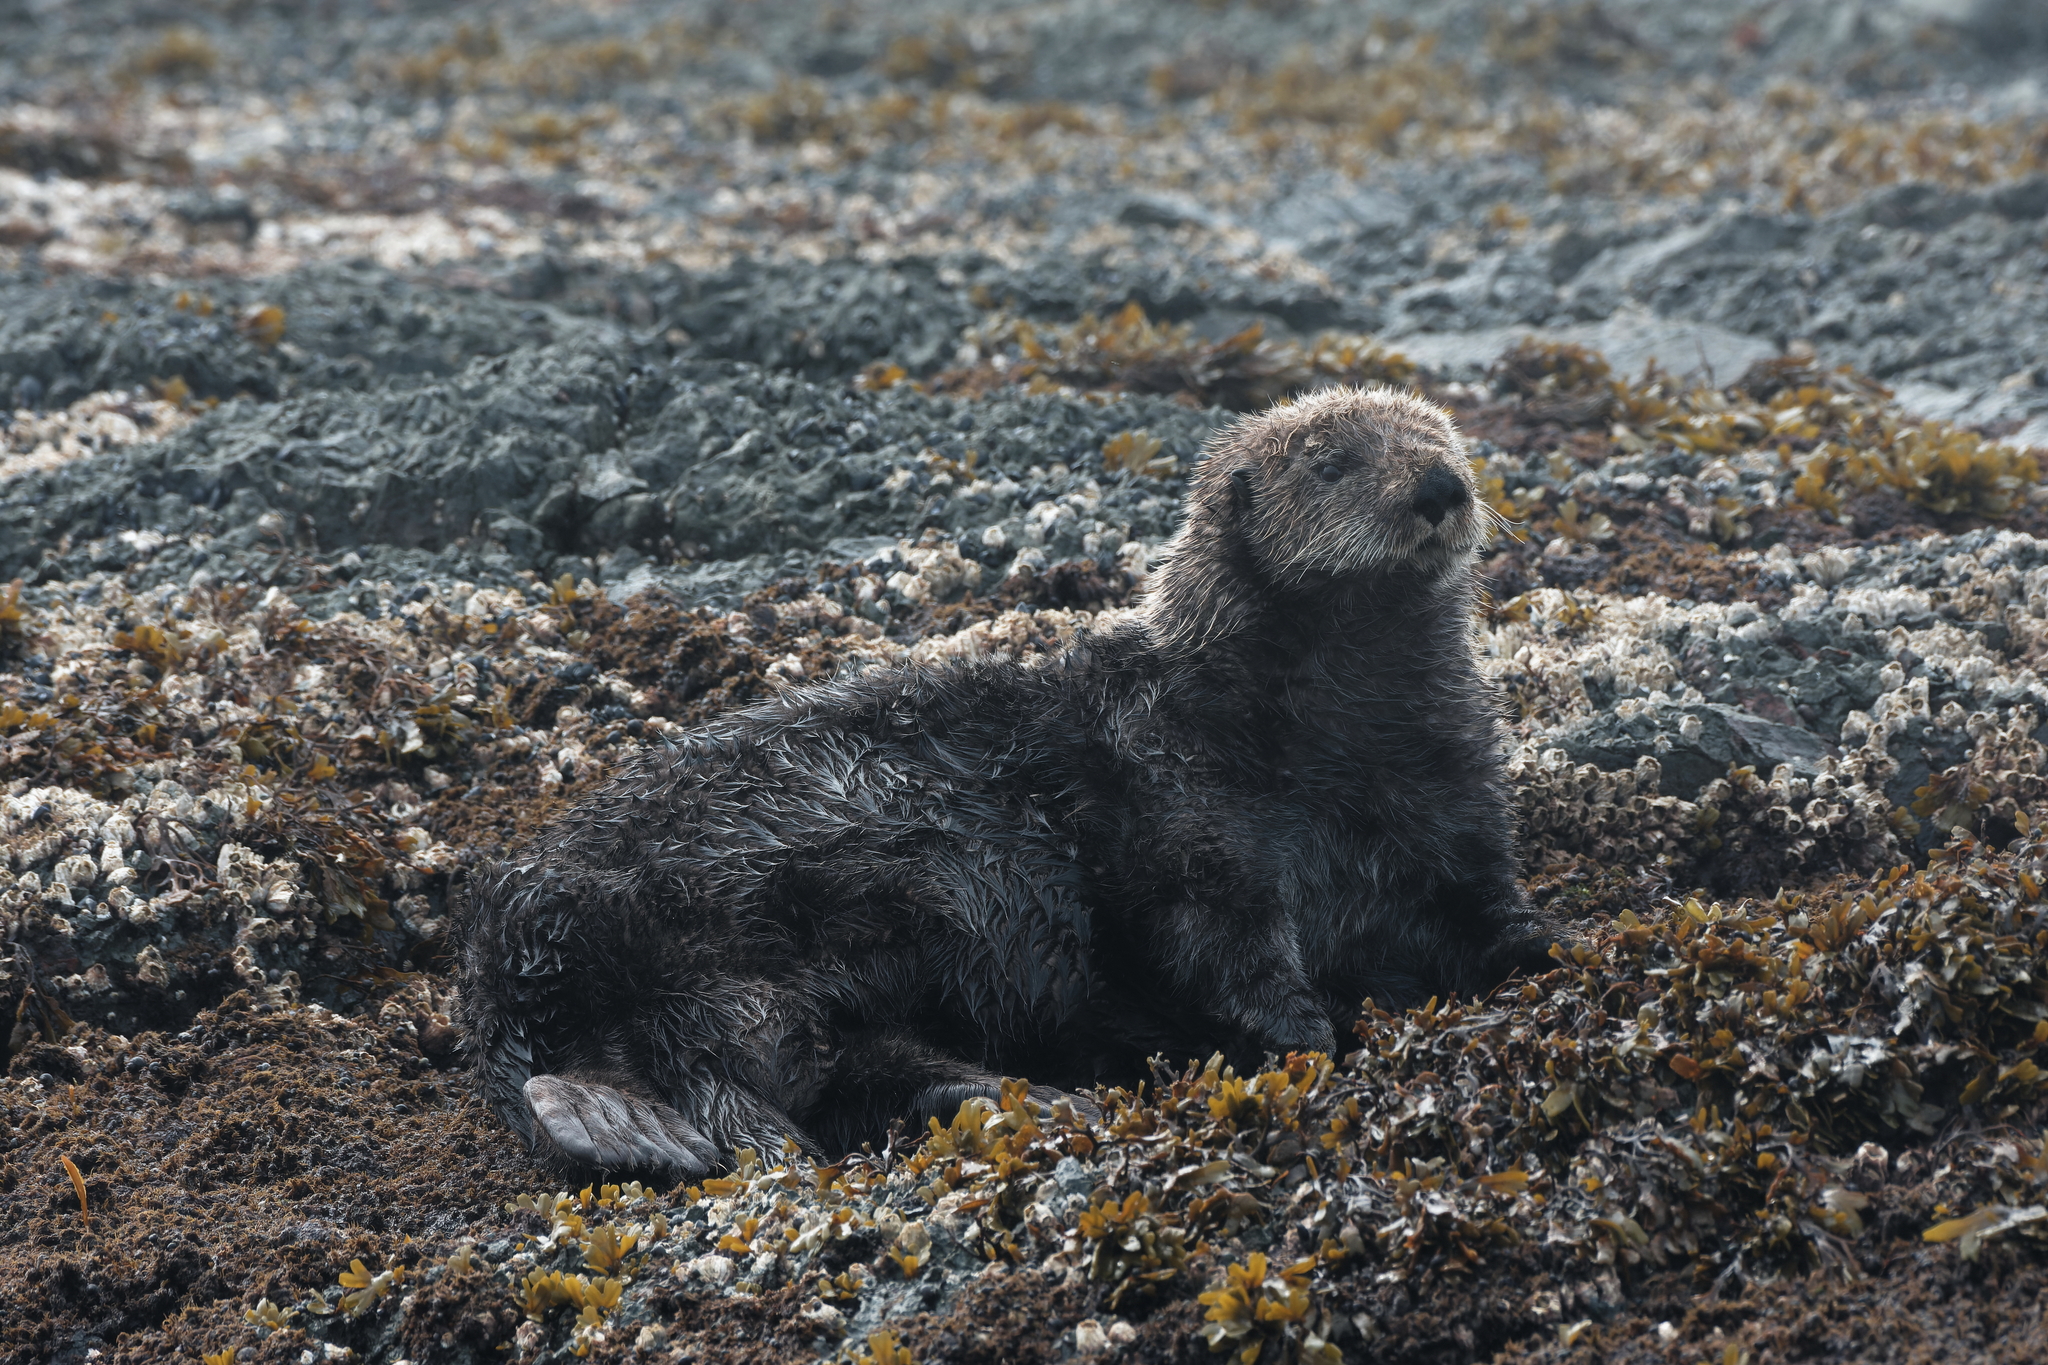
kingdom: Animalia
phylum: Chordata
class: Mammalia
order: Carnivora
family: Mustelidae
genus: Enhydra
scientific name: Enhydra lutris
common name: Sea otter
